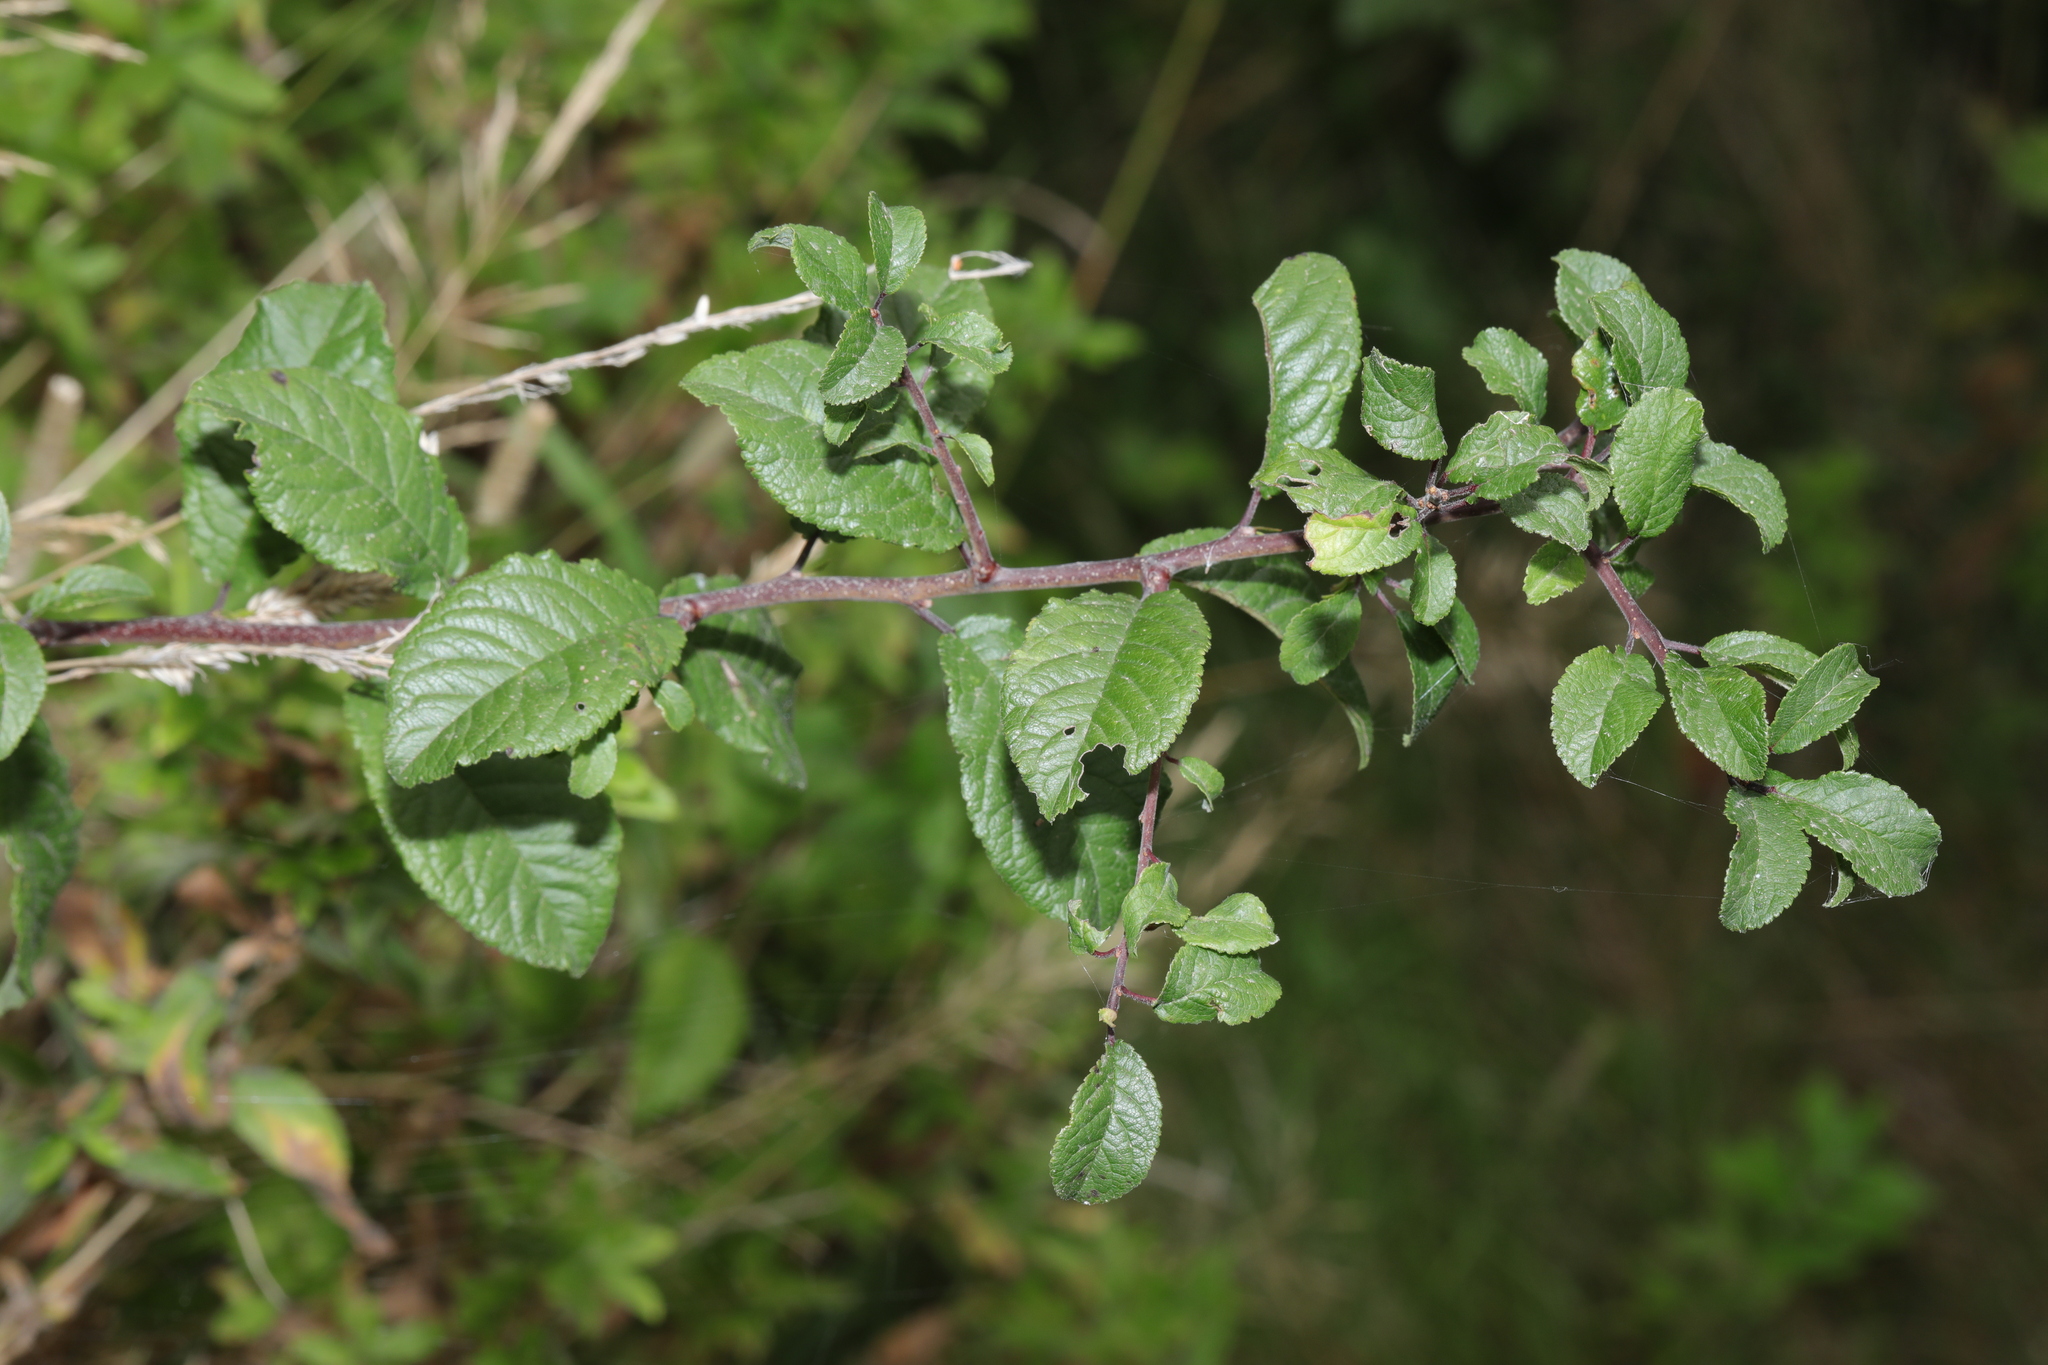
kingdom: Plantae
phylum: Tracheophyta
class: Magnoliopsida
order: Rosales
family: Rosaceae
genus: Prunus
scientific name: Prunus spinosa
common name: Blackthorn
